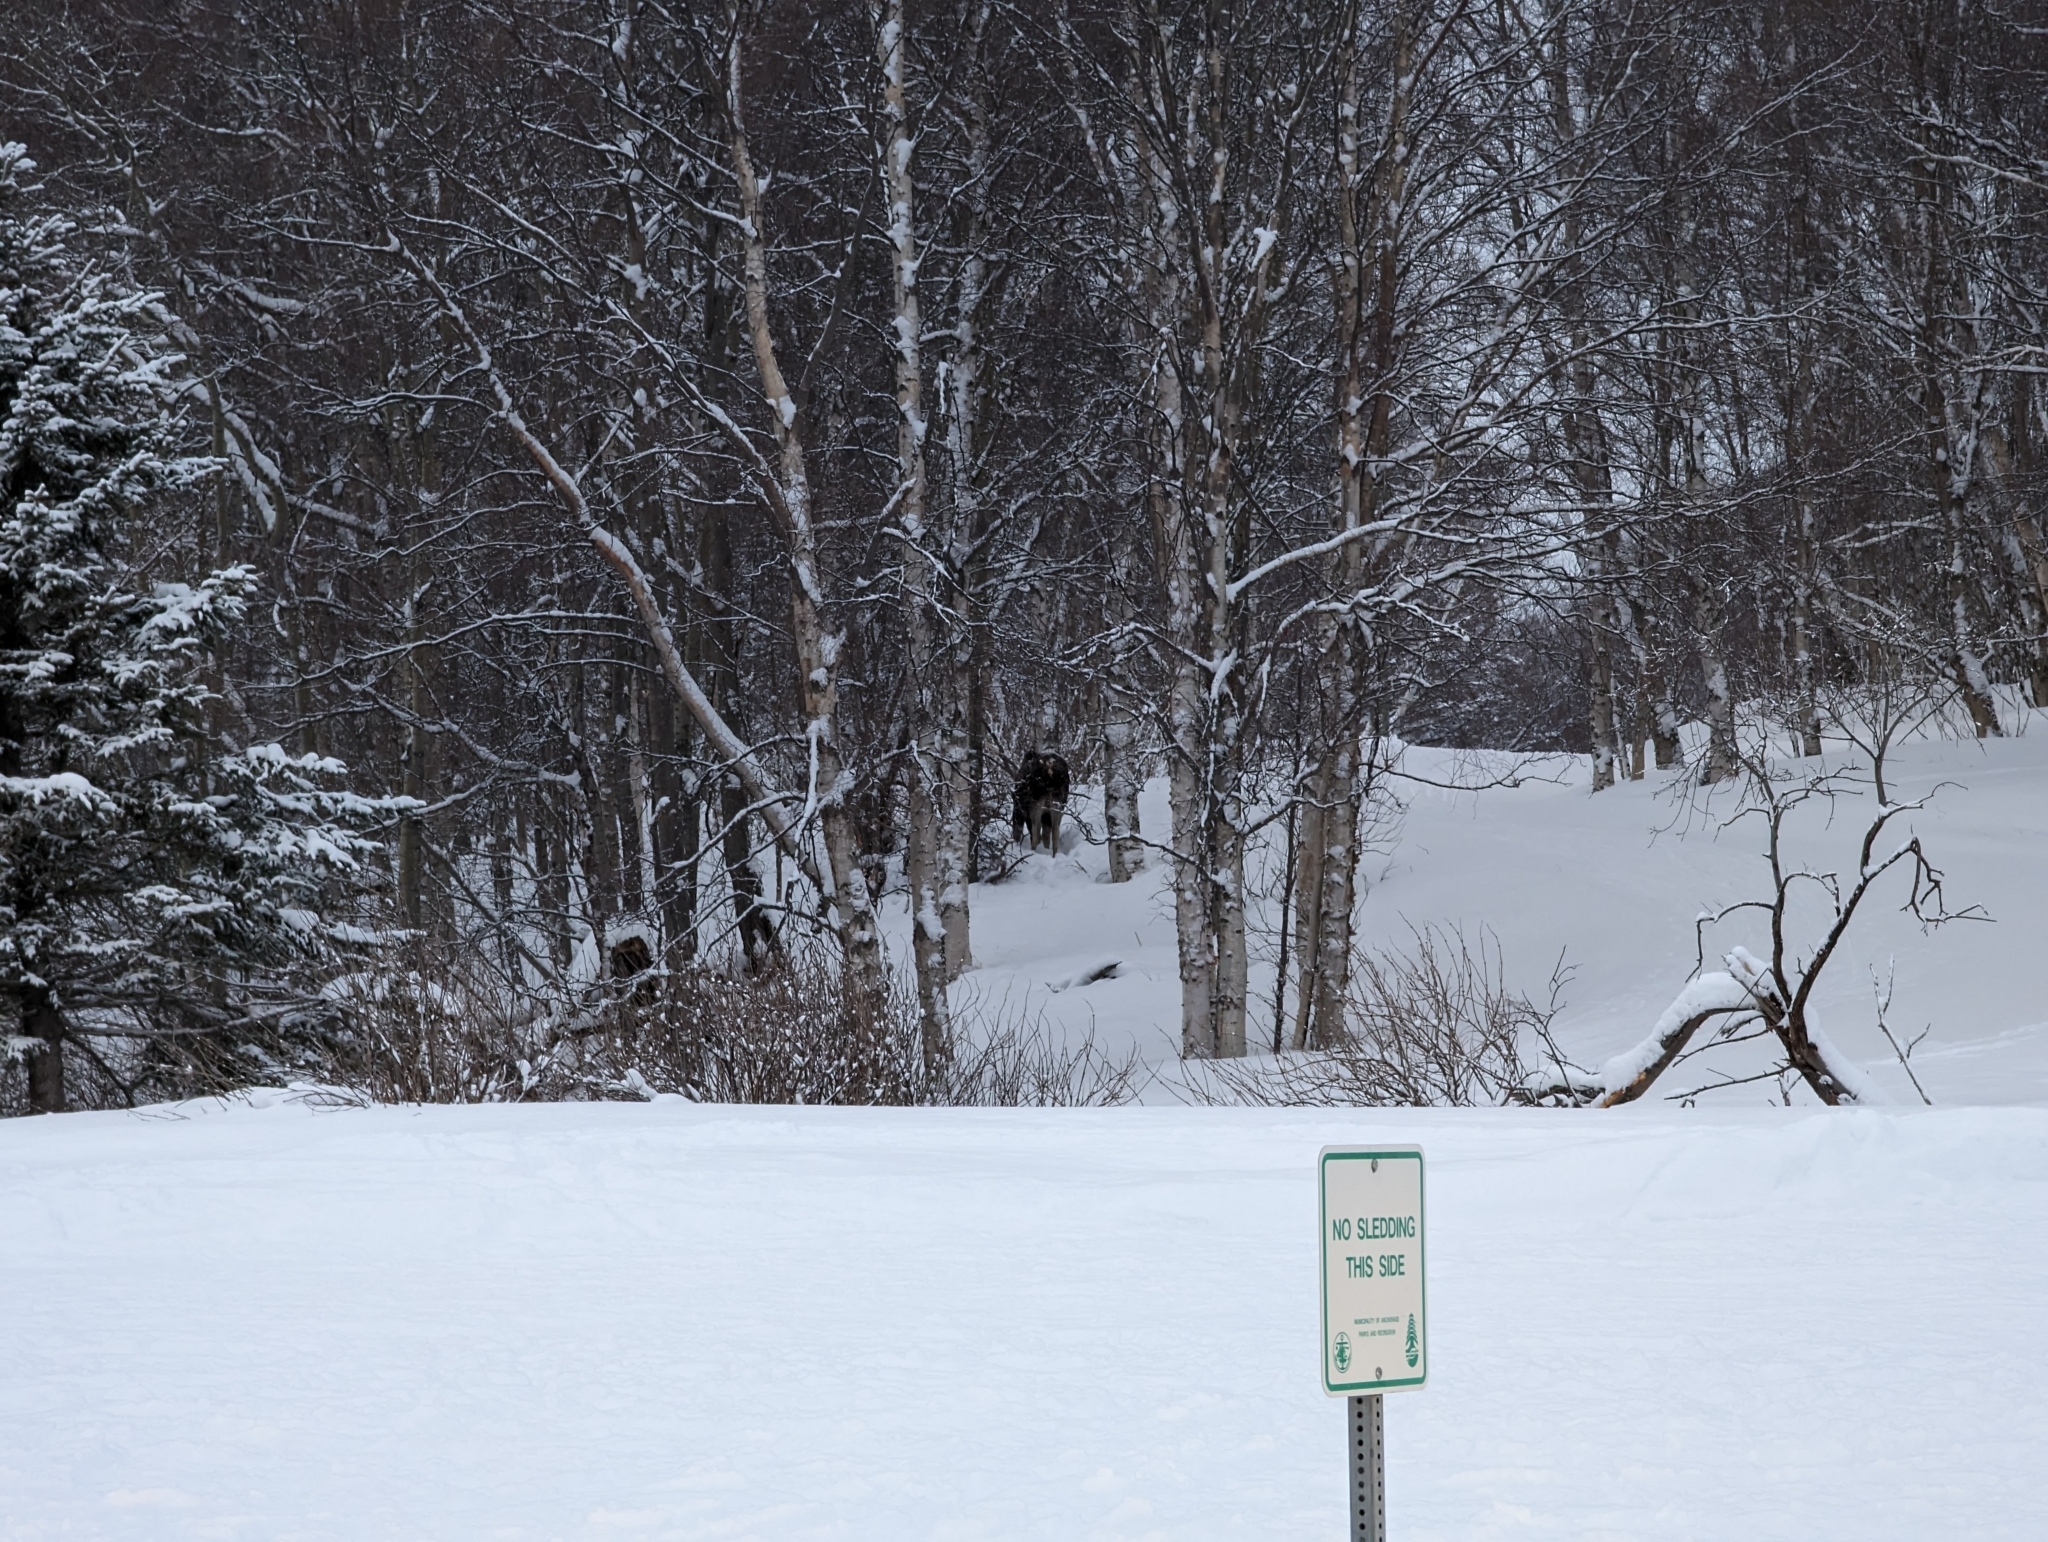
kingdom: Animalia
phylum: Chordata
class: Mammalia
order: Artiodactyla
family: Cervidae
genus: Alces
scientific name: Alces alces
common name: Moose
